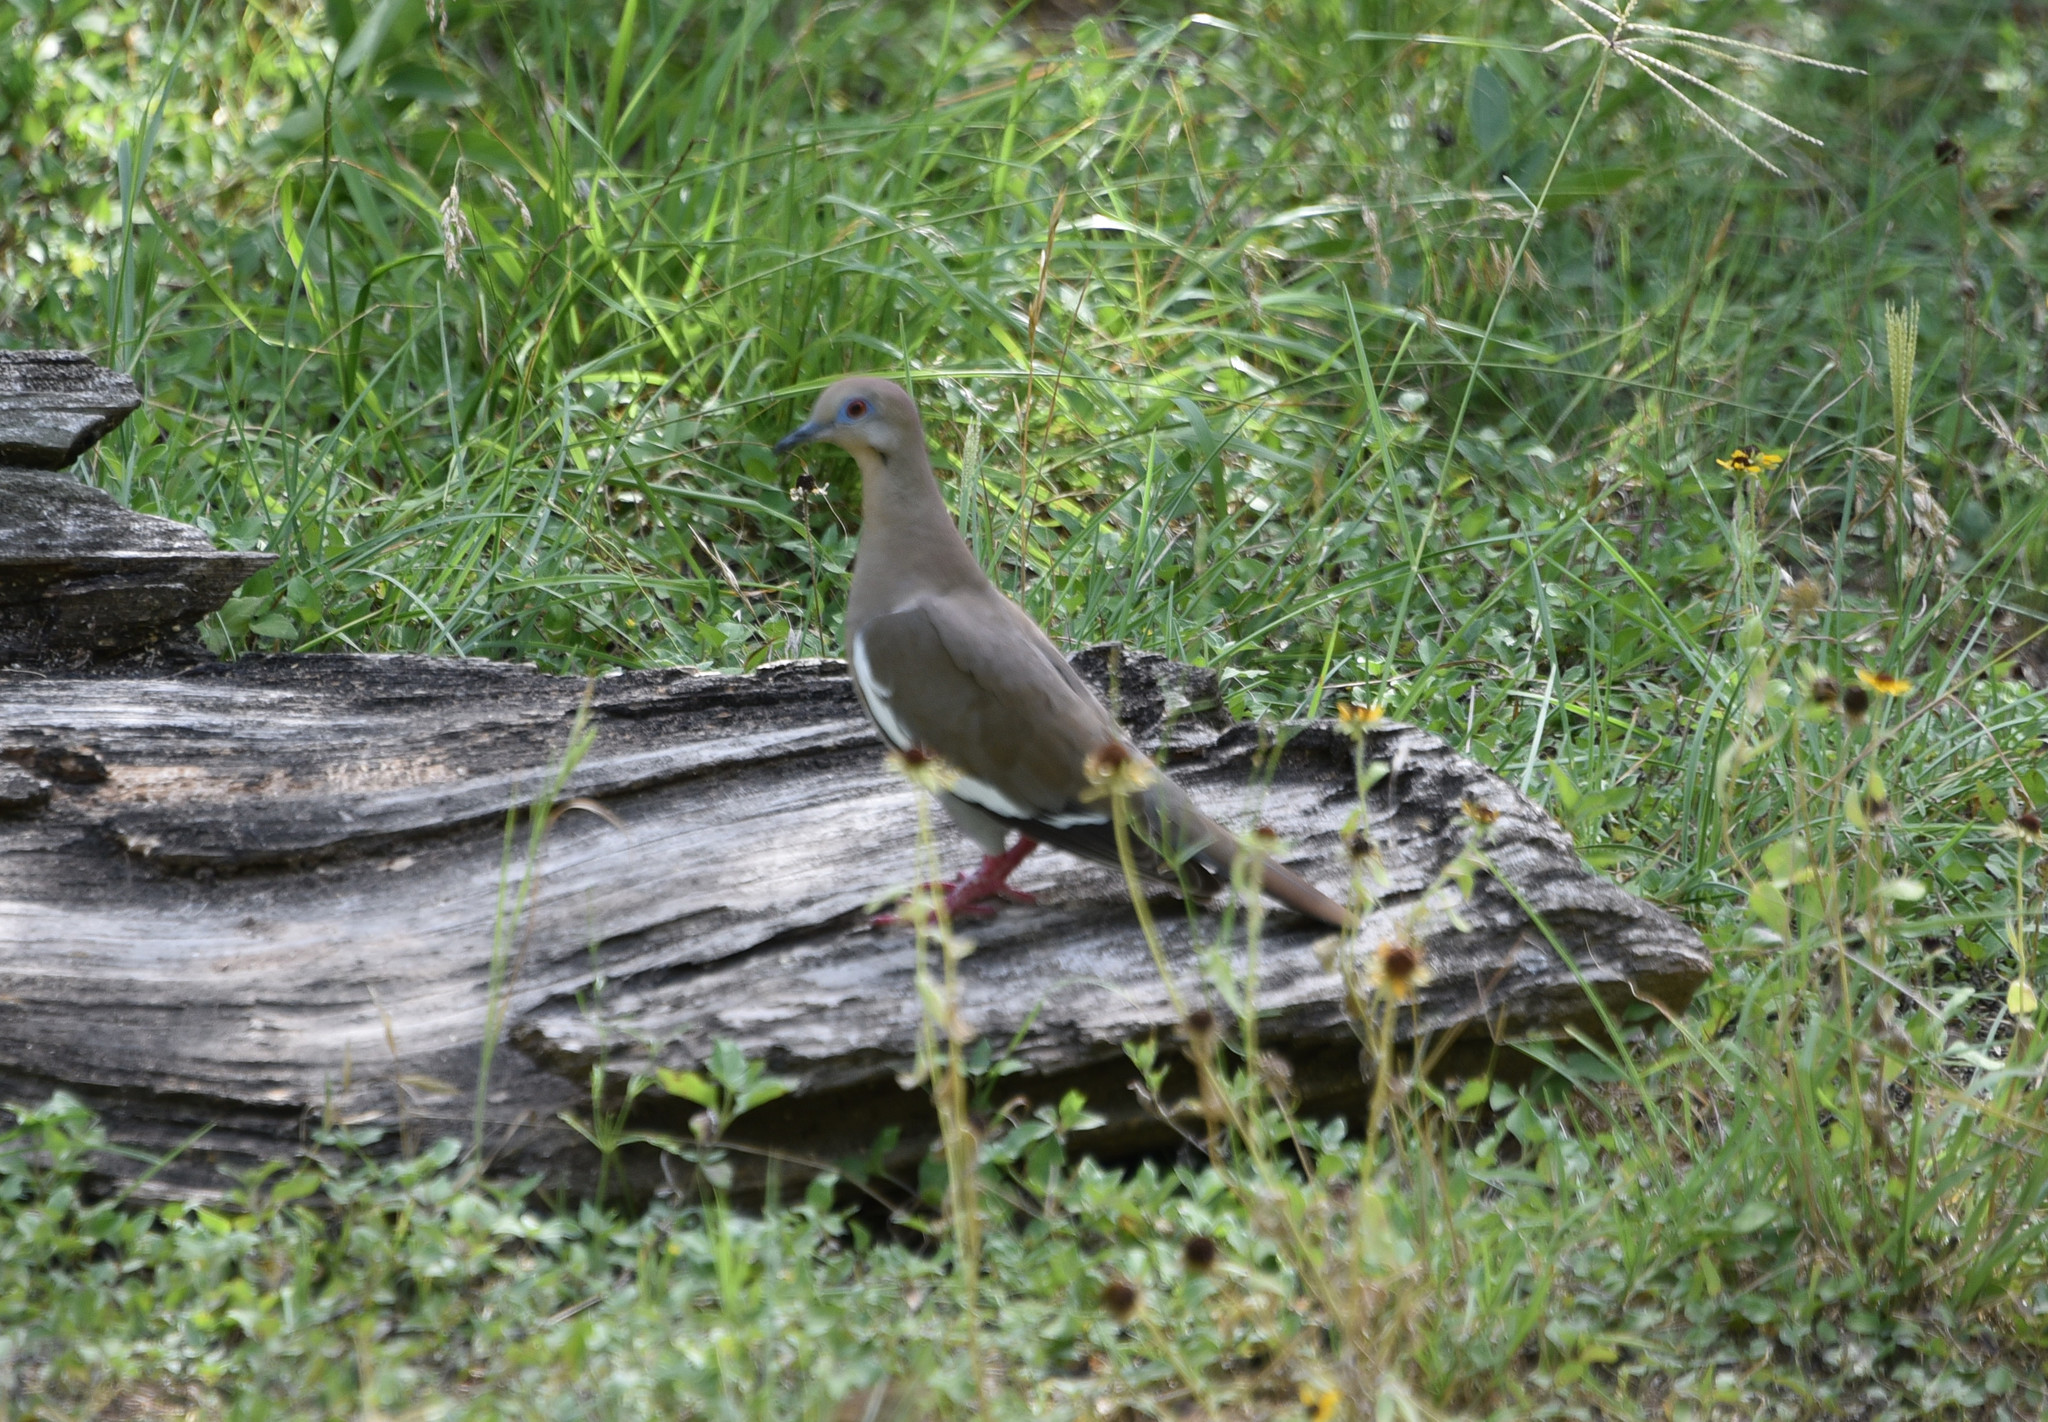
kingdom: Animalia
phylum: Chordata
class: Aves
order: Columbiformes
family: Columbidae
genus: Zenaida
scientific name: Zenaida asiatica
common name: White-winged dove
